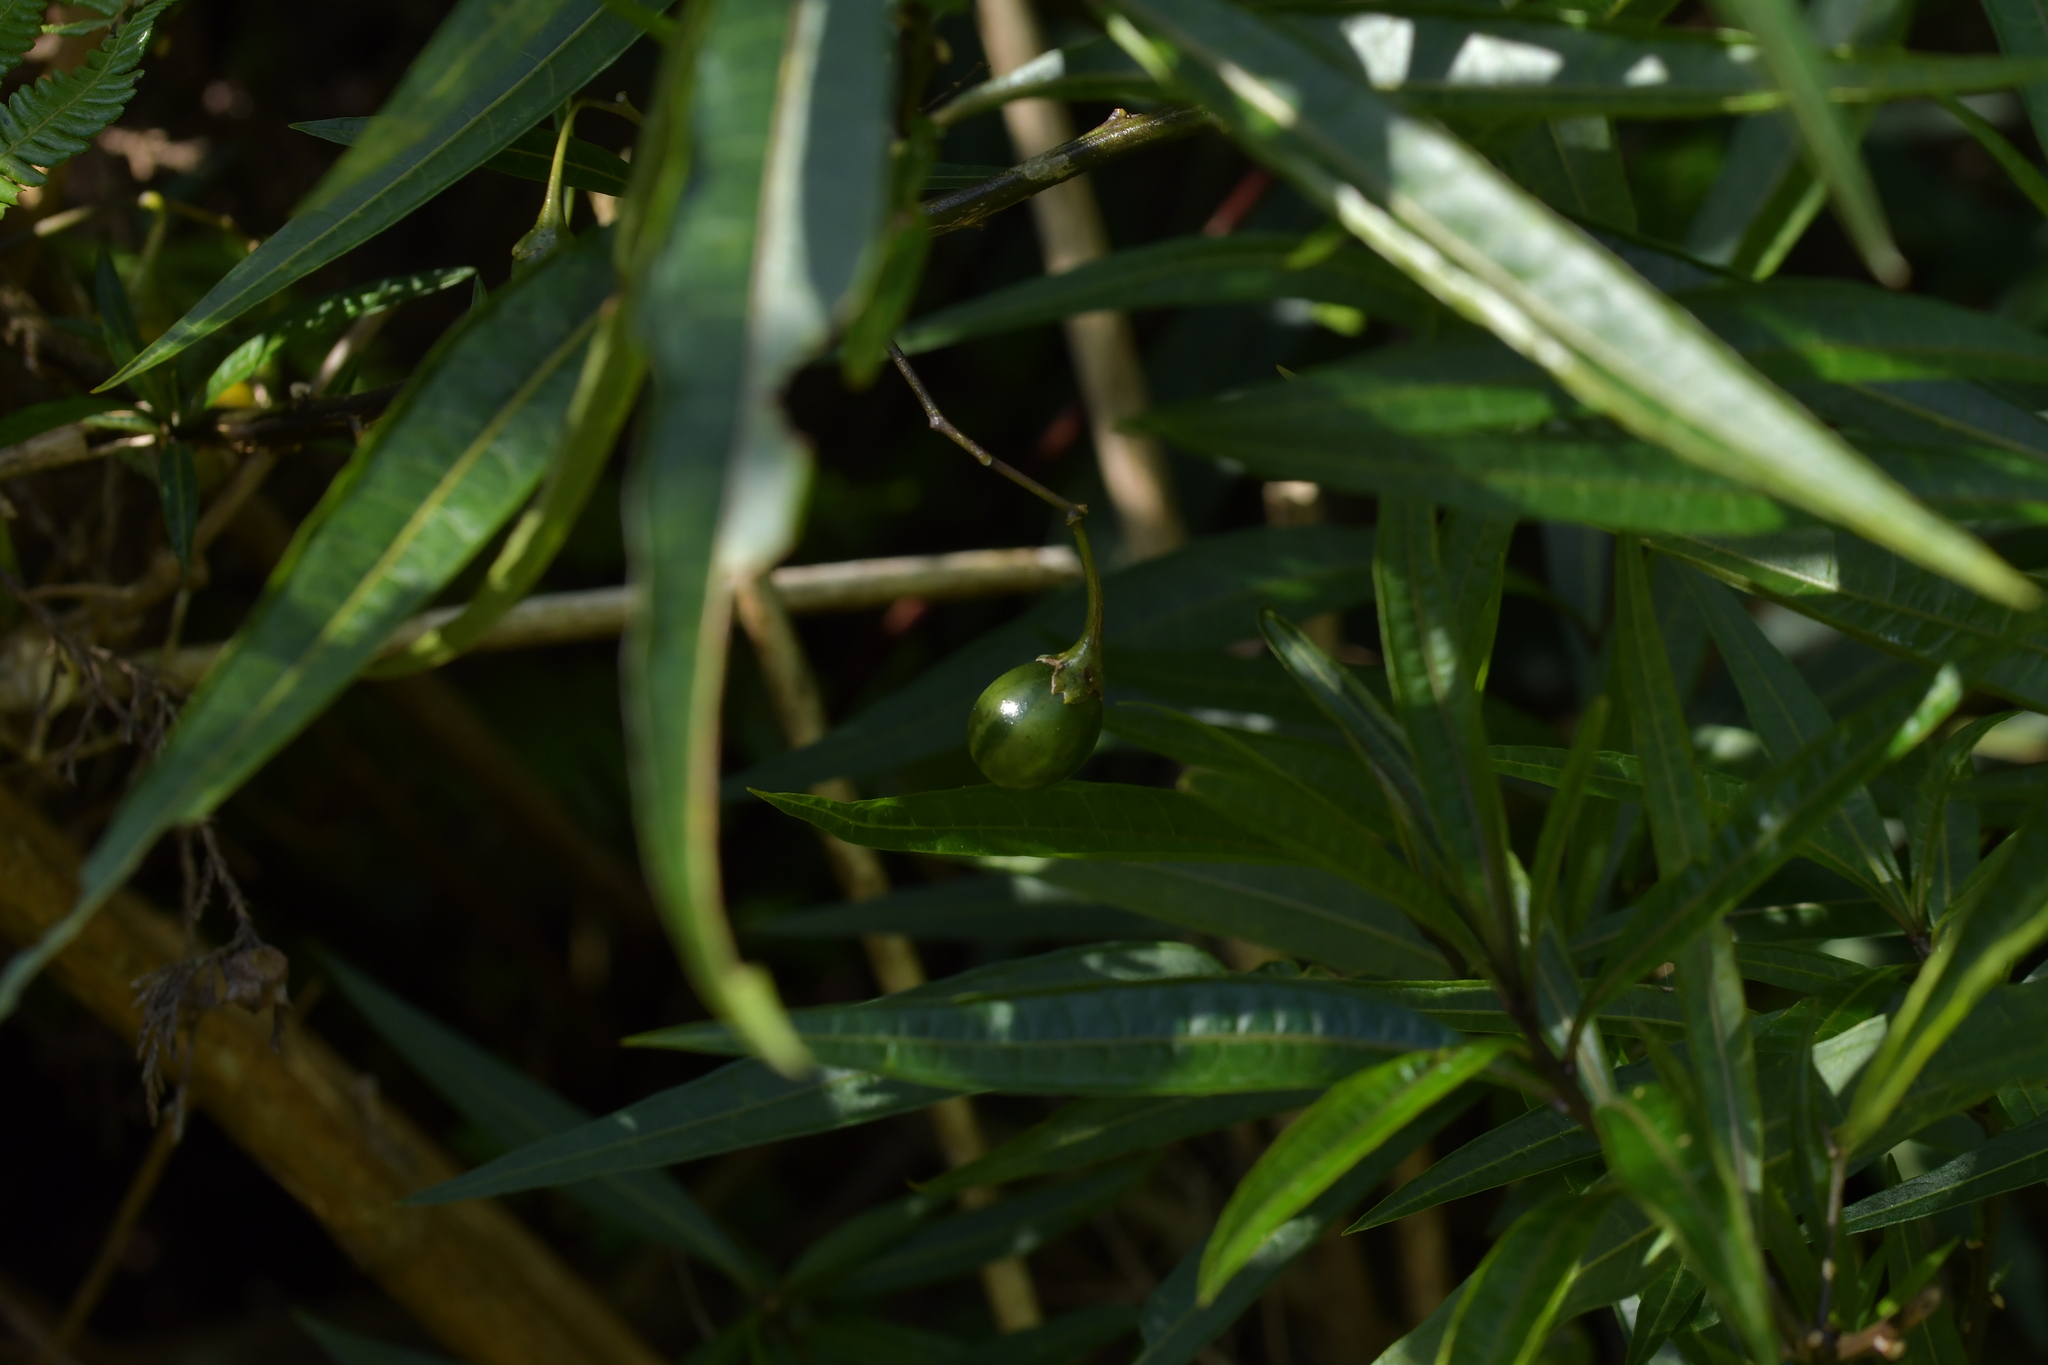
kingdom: Plantae
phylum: Tracheophyta
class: Magnoliopsida
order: Solanales
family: Solanaceae
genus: Solanum
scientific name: Solanum laciniatum
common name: Kangaroo-apple
